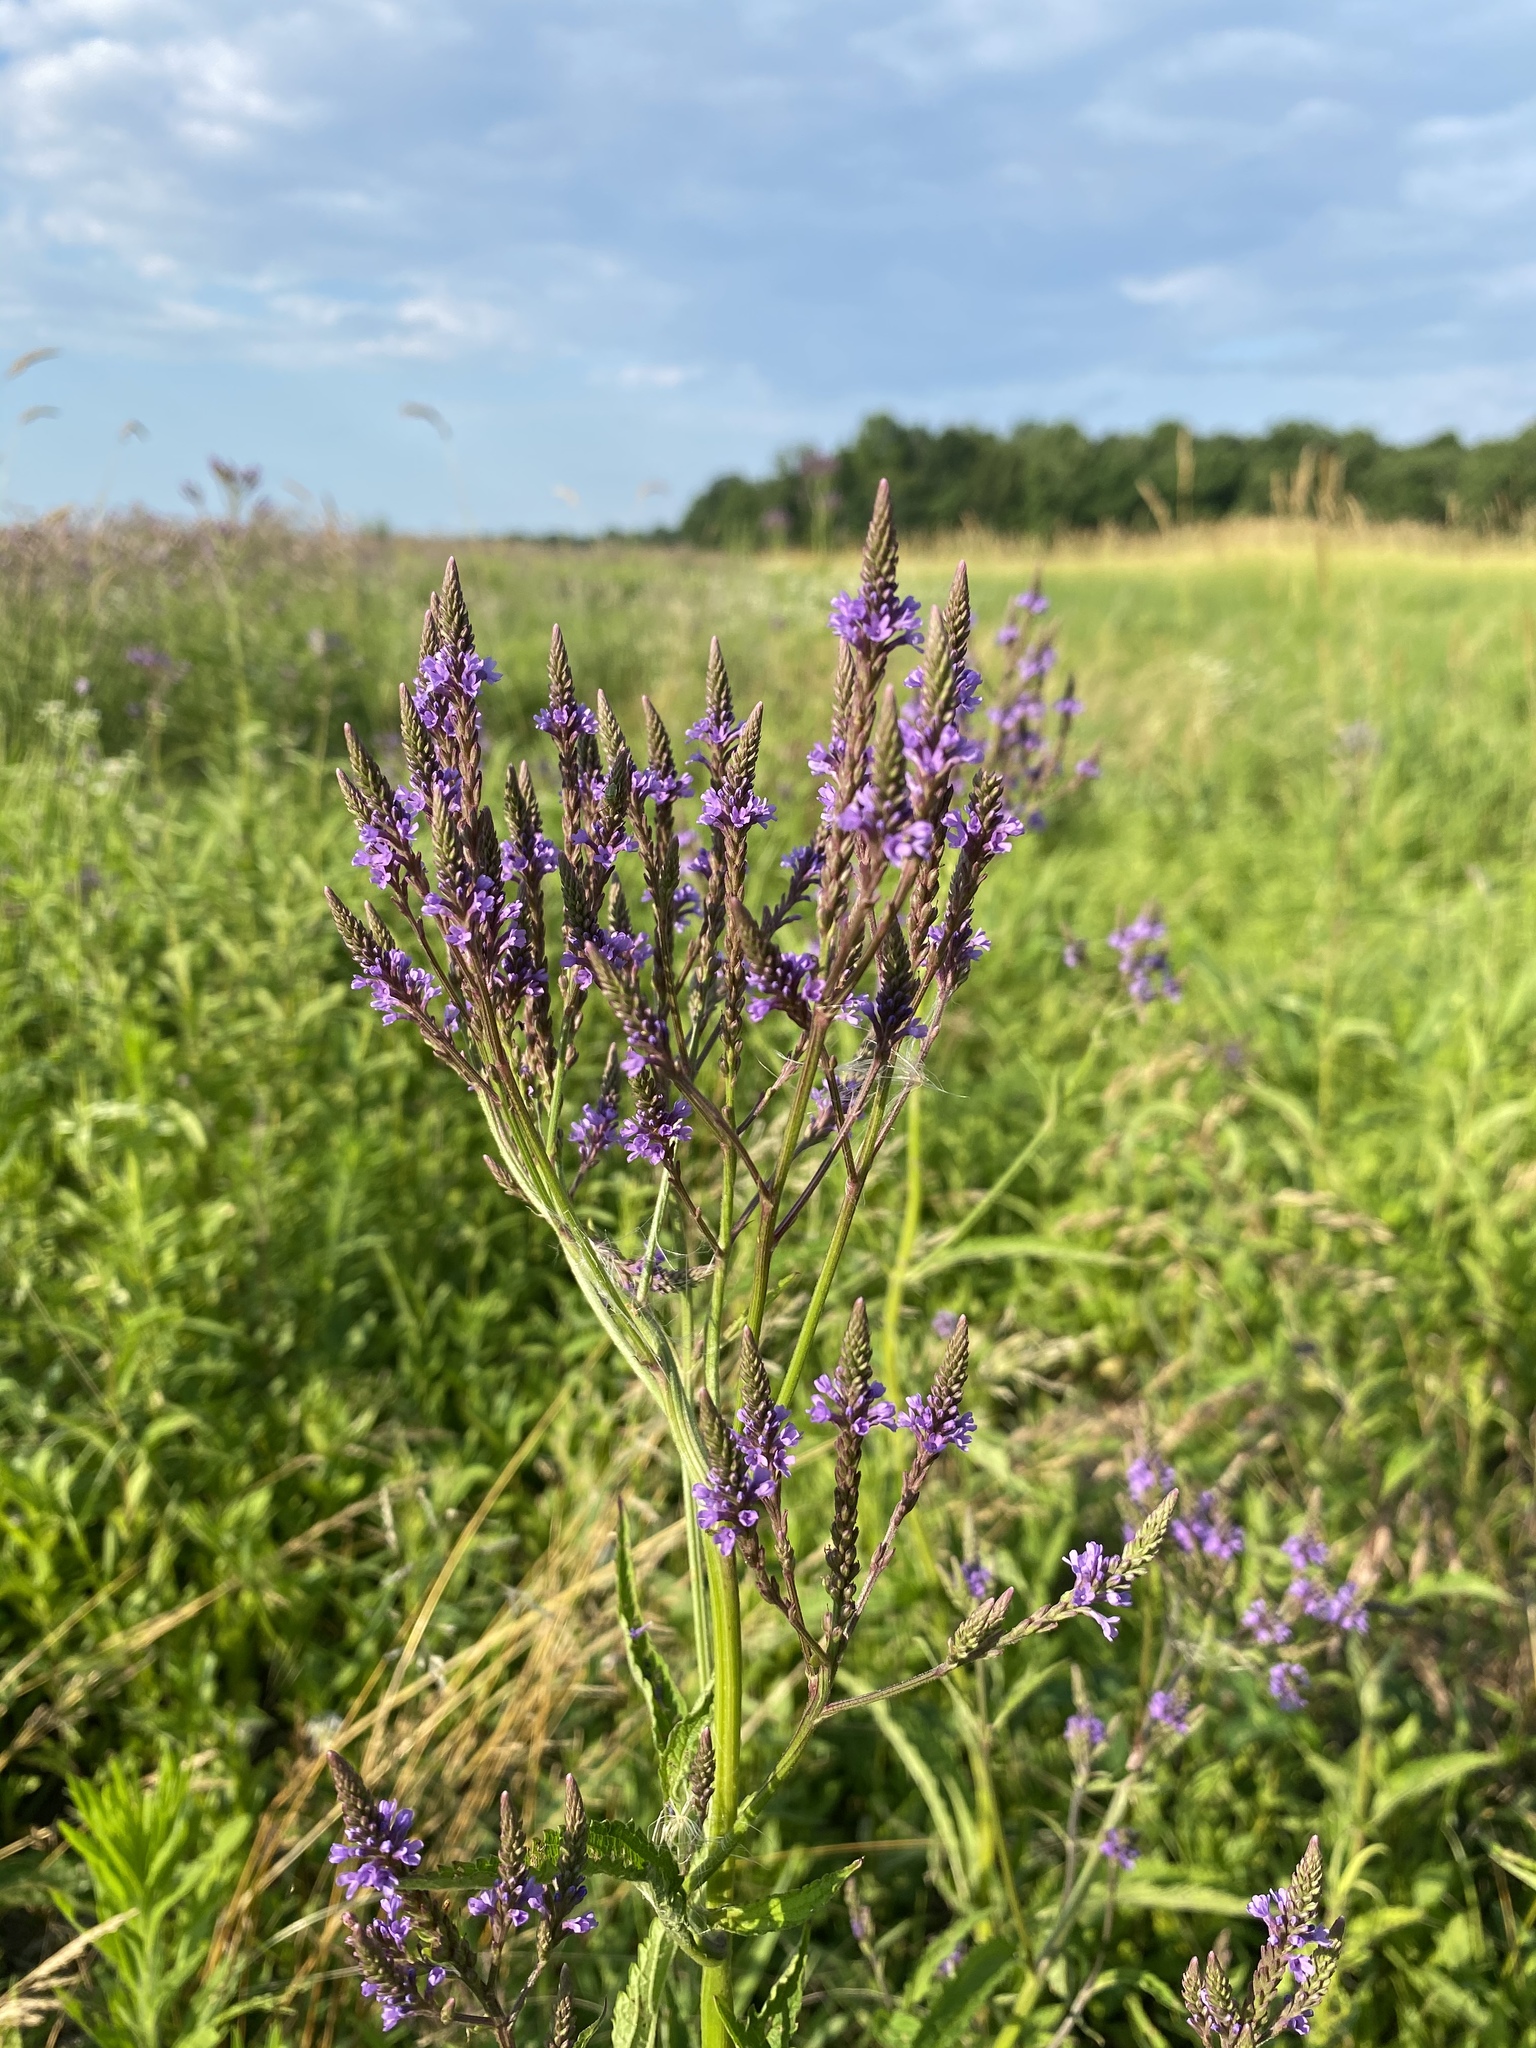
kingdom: Plantae
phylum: Tracheophyta
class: Magnoliopsida
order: Lamiales
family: Verbenaceae
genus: Verbena
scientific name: Verbena hastata
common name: American blue vervain
